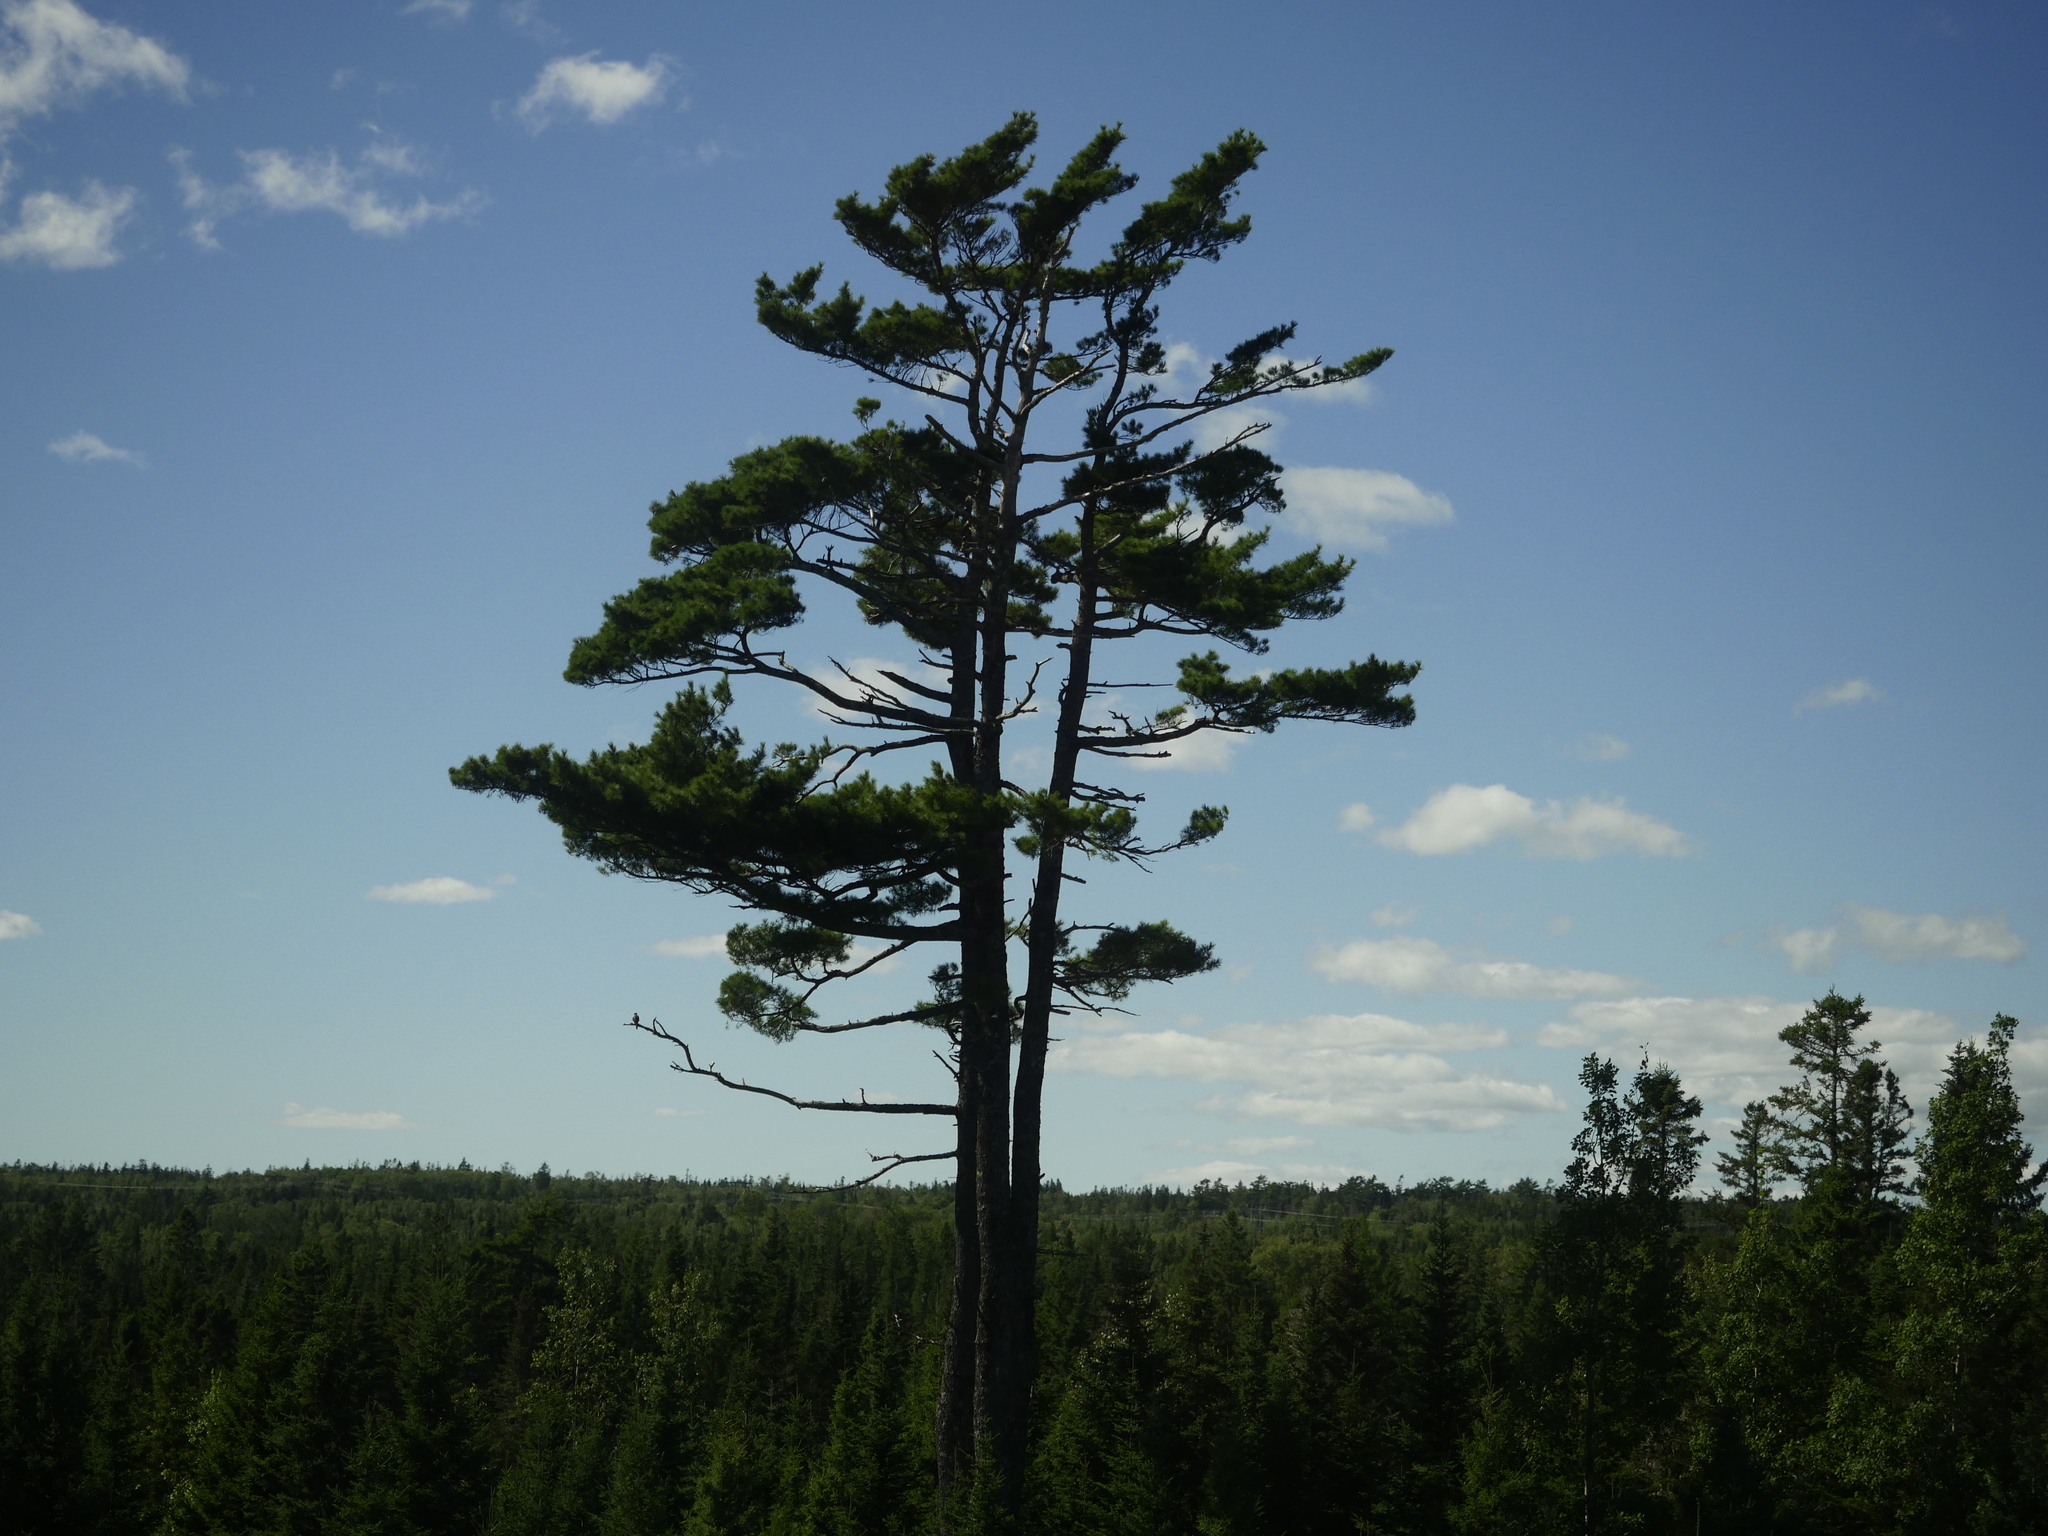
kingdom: Plantae
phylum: Tracheophyta
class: Pinopsida
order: Pinales
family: Pinaceae
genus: Pinus
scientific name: Pinus strobus
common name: Weymouth pine
